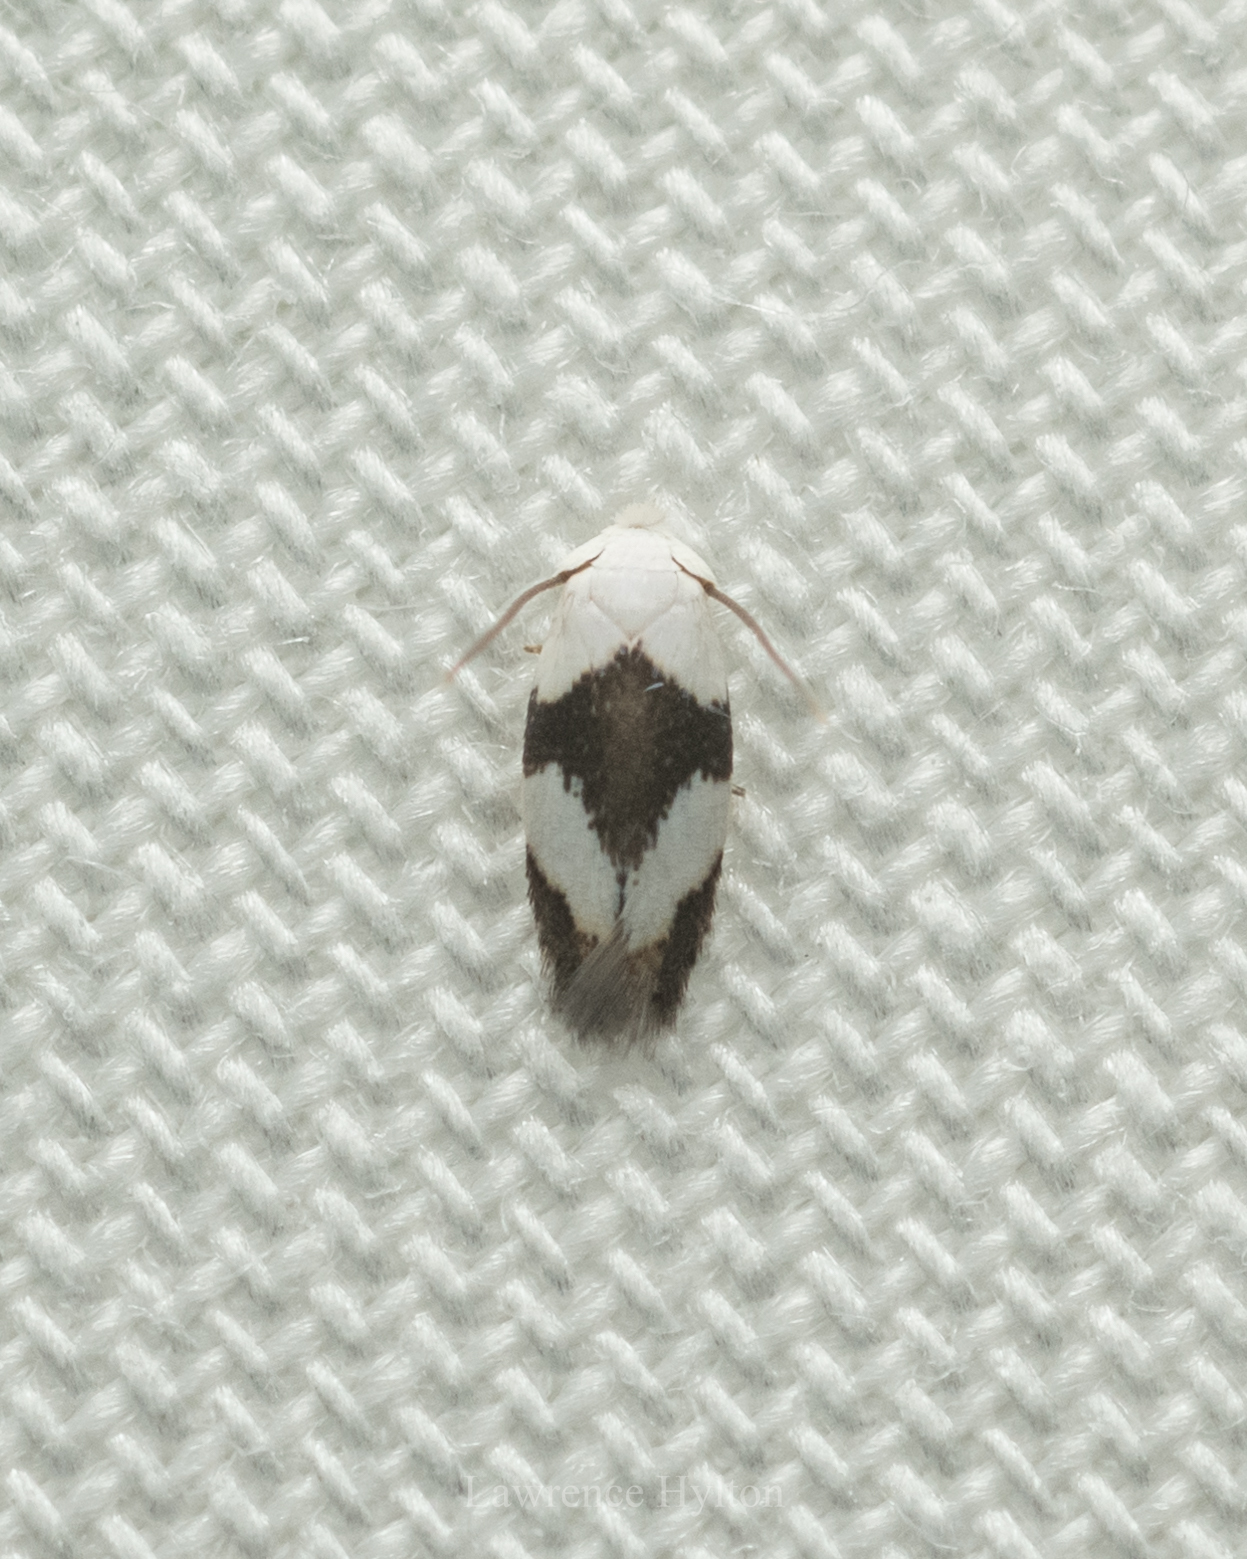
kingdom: Animalia
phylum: Arthropoda
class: Insecta
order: Lepidoptera
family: Opostegidae
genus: Pseudopostega
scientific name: Pseudopostega zelopa
